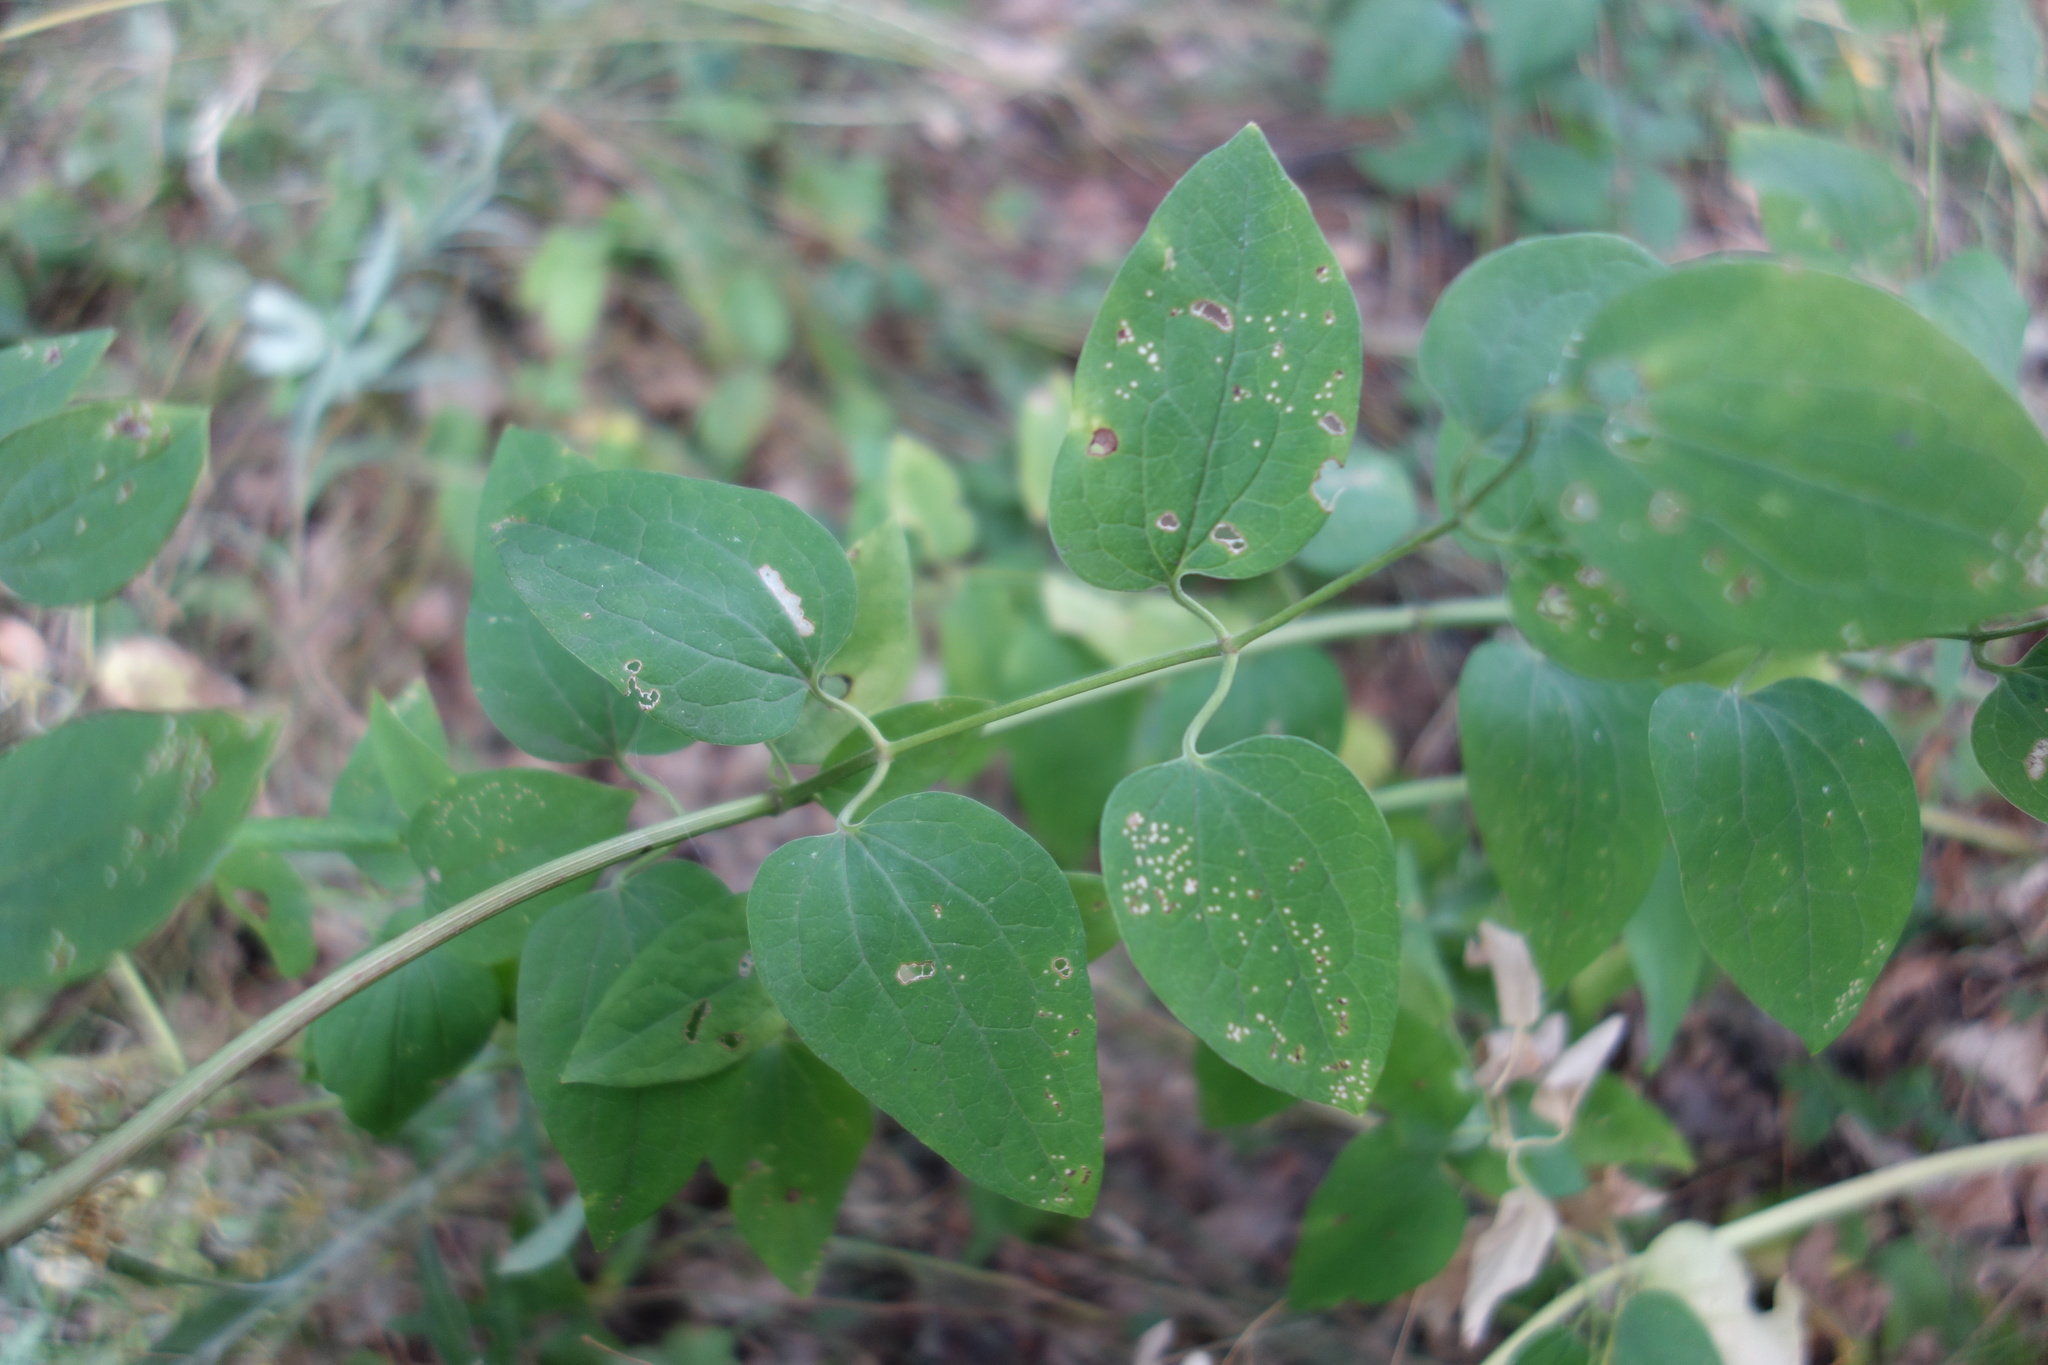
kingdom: Plantae
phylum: Tracheophyta
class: Magnoliopsida
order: Ranunculales
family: Ranunculaceae
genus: Clematis
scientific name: Clematis recta
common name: Ground clematis
